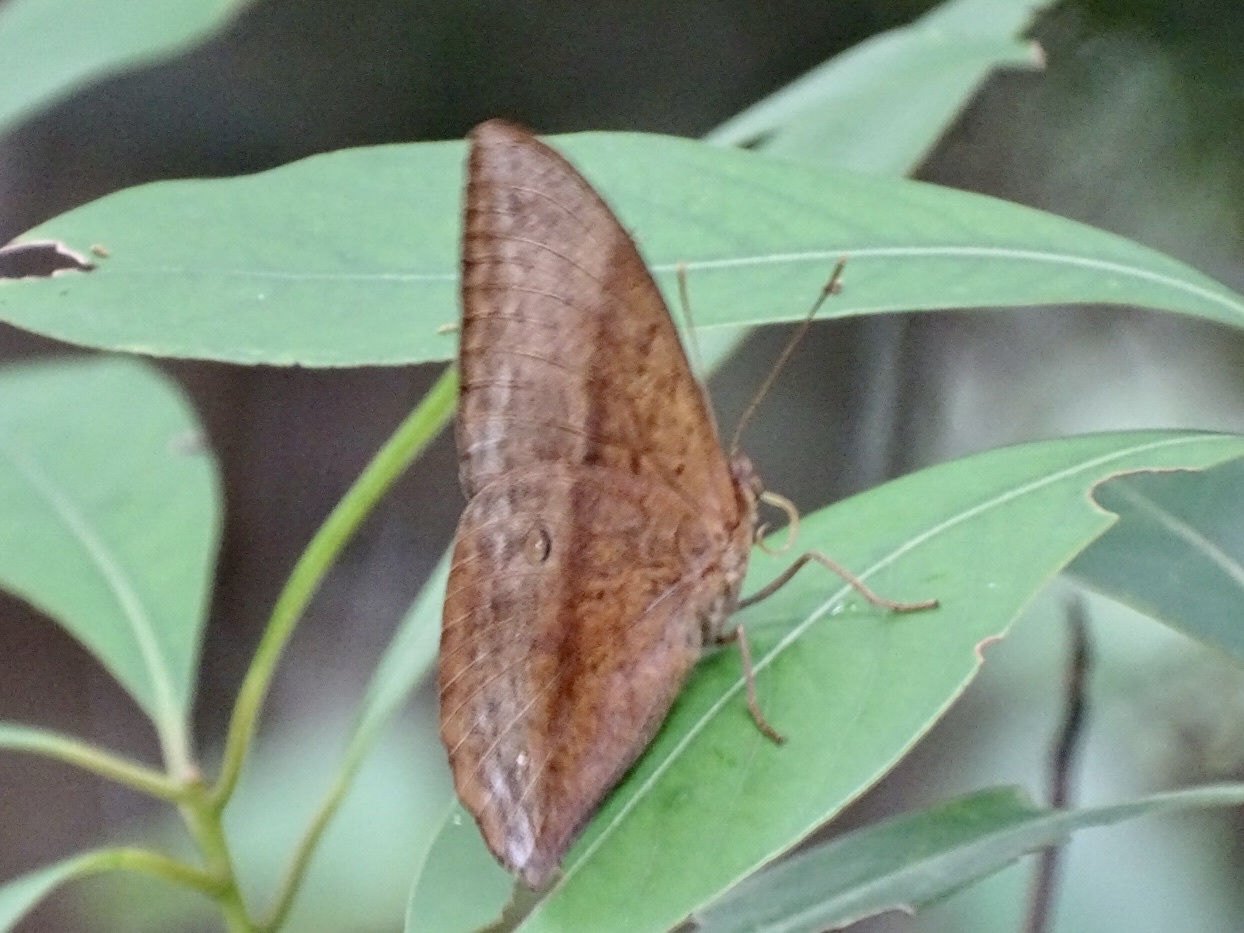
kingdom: Animalia
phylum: Arthropoda
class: Insecta
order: Lepidoptera
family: Nymphalidae
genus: Discophora
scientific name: Discophora sondaica
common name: Common duffer
